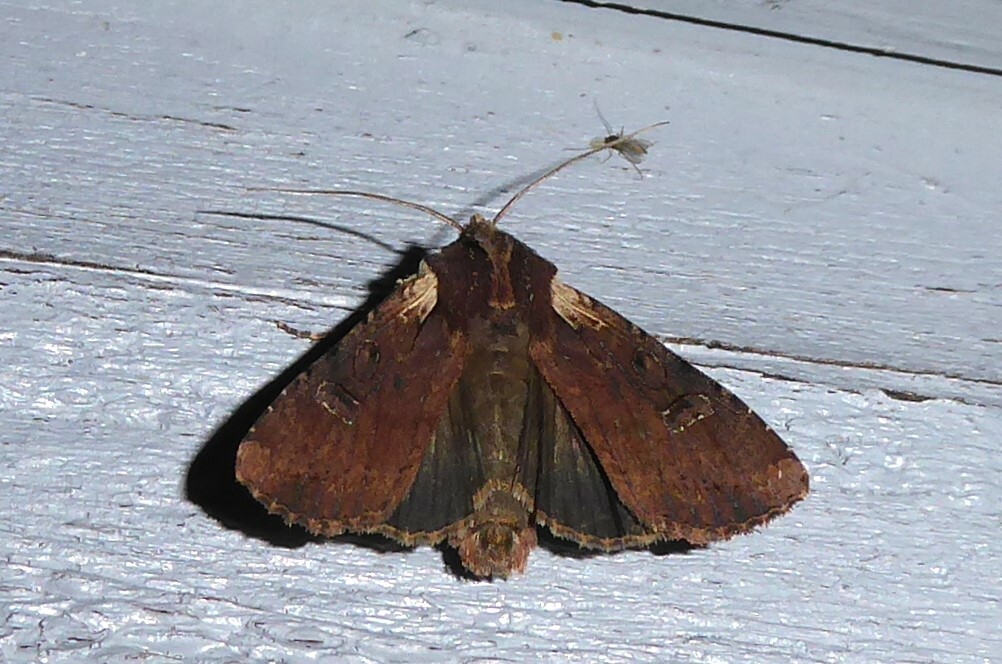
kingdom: Animalia
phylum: Arthropoda
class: Insecta
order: Lepidoptera
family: Noctuidae
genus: Ichneutica
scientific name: Ichneutica omoplaca
